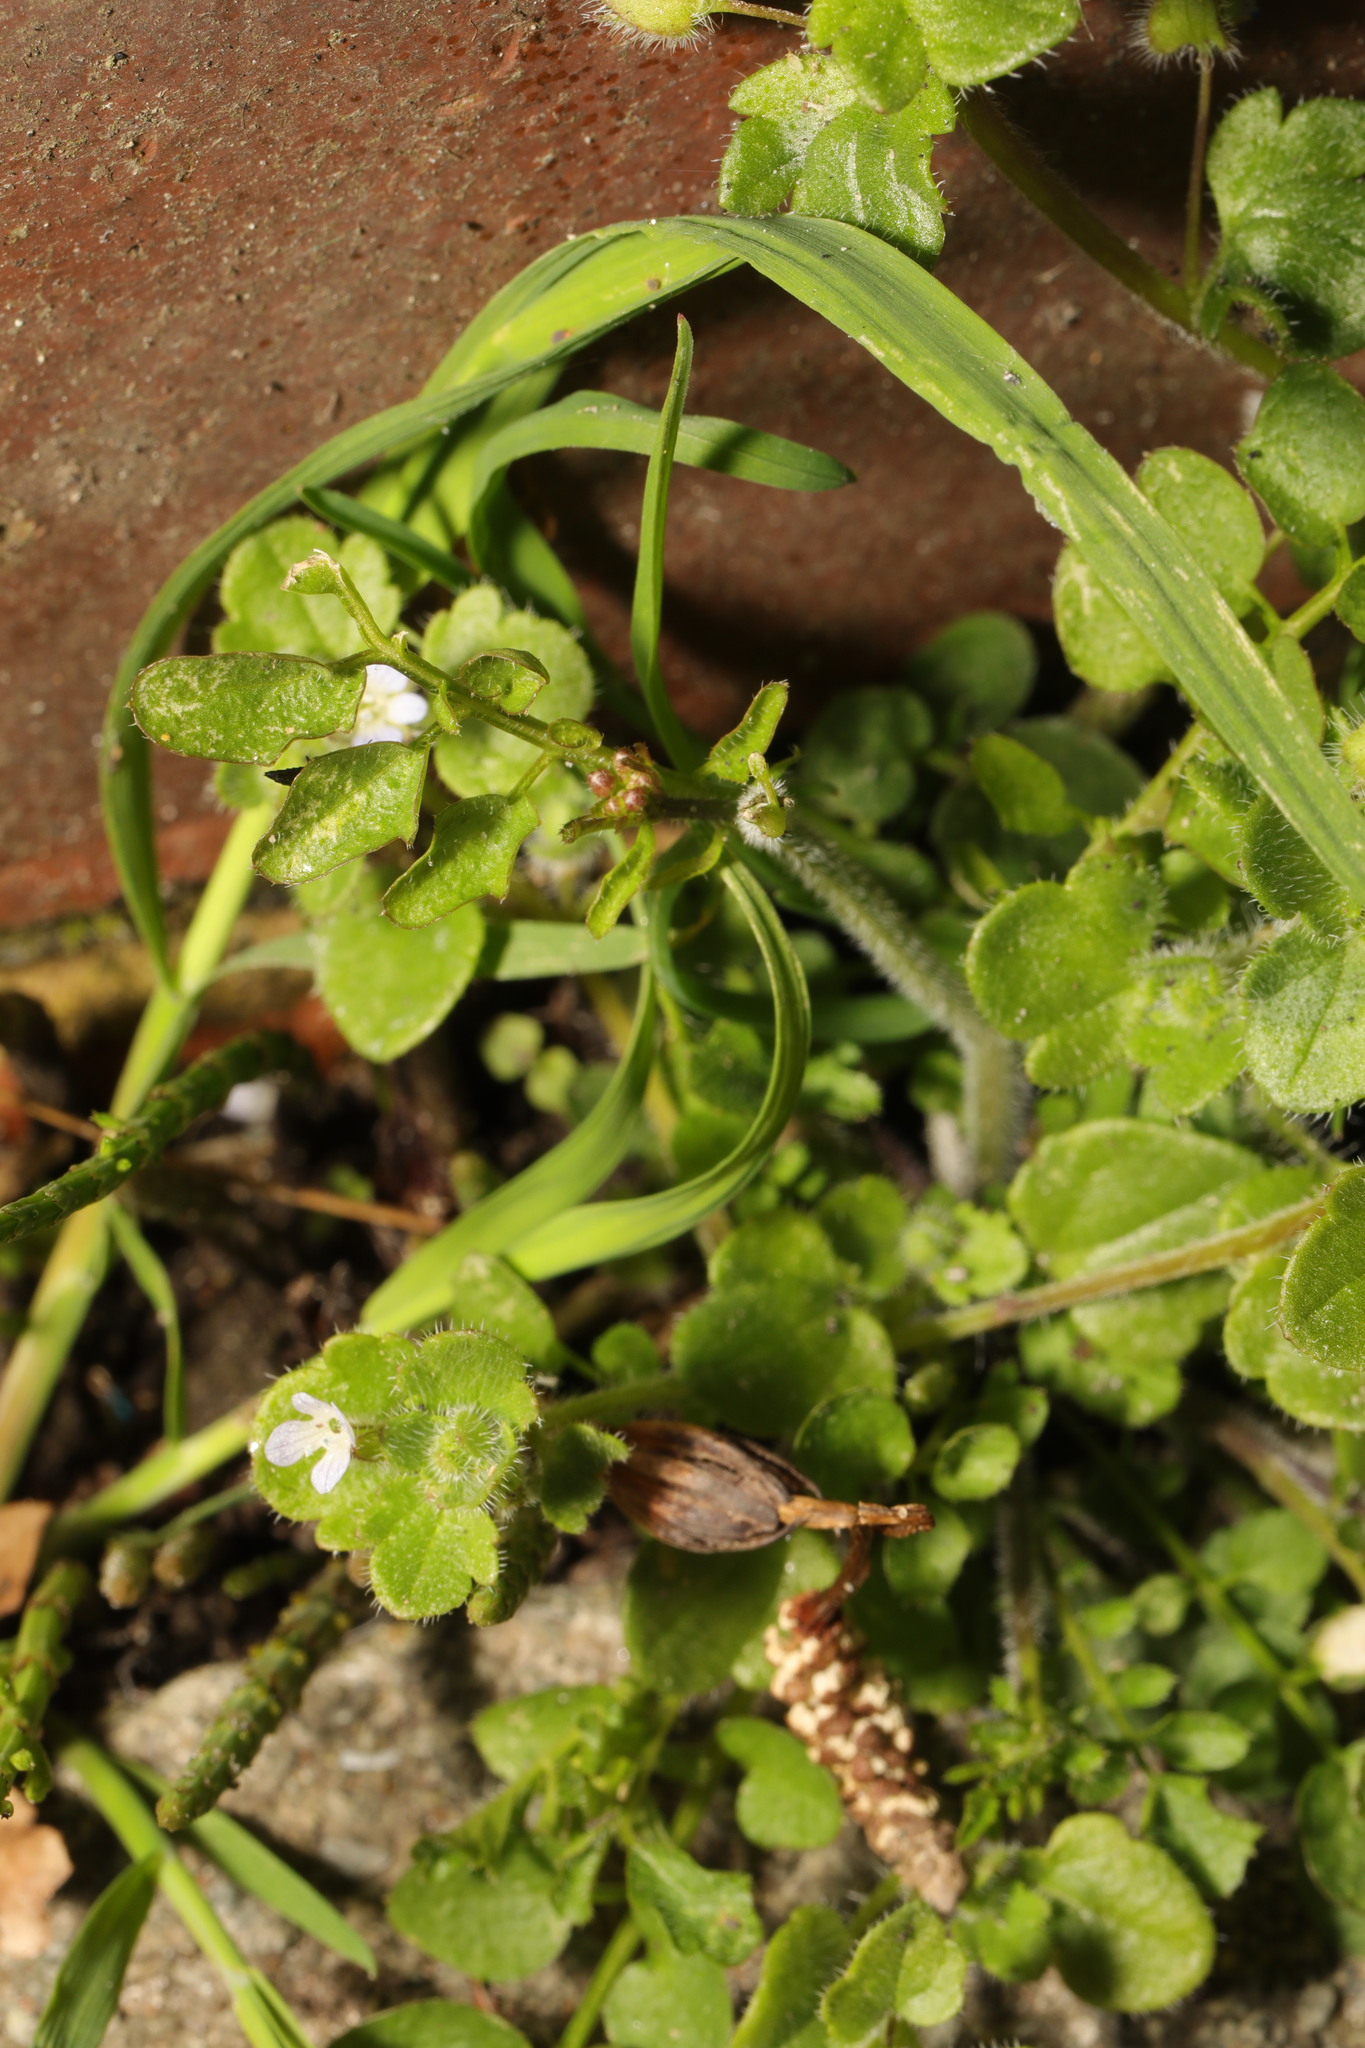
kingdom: Plantae
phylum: Tracheophyta
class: Magnoliopsida
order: Lamiales
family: Plantaginaceae
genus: Veronica
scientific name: Veronica hederifolia
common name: Ivy-leaved speedwell
